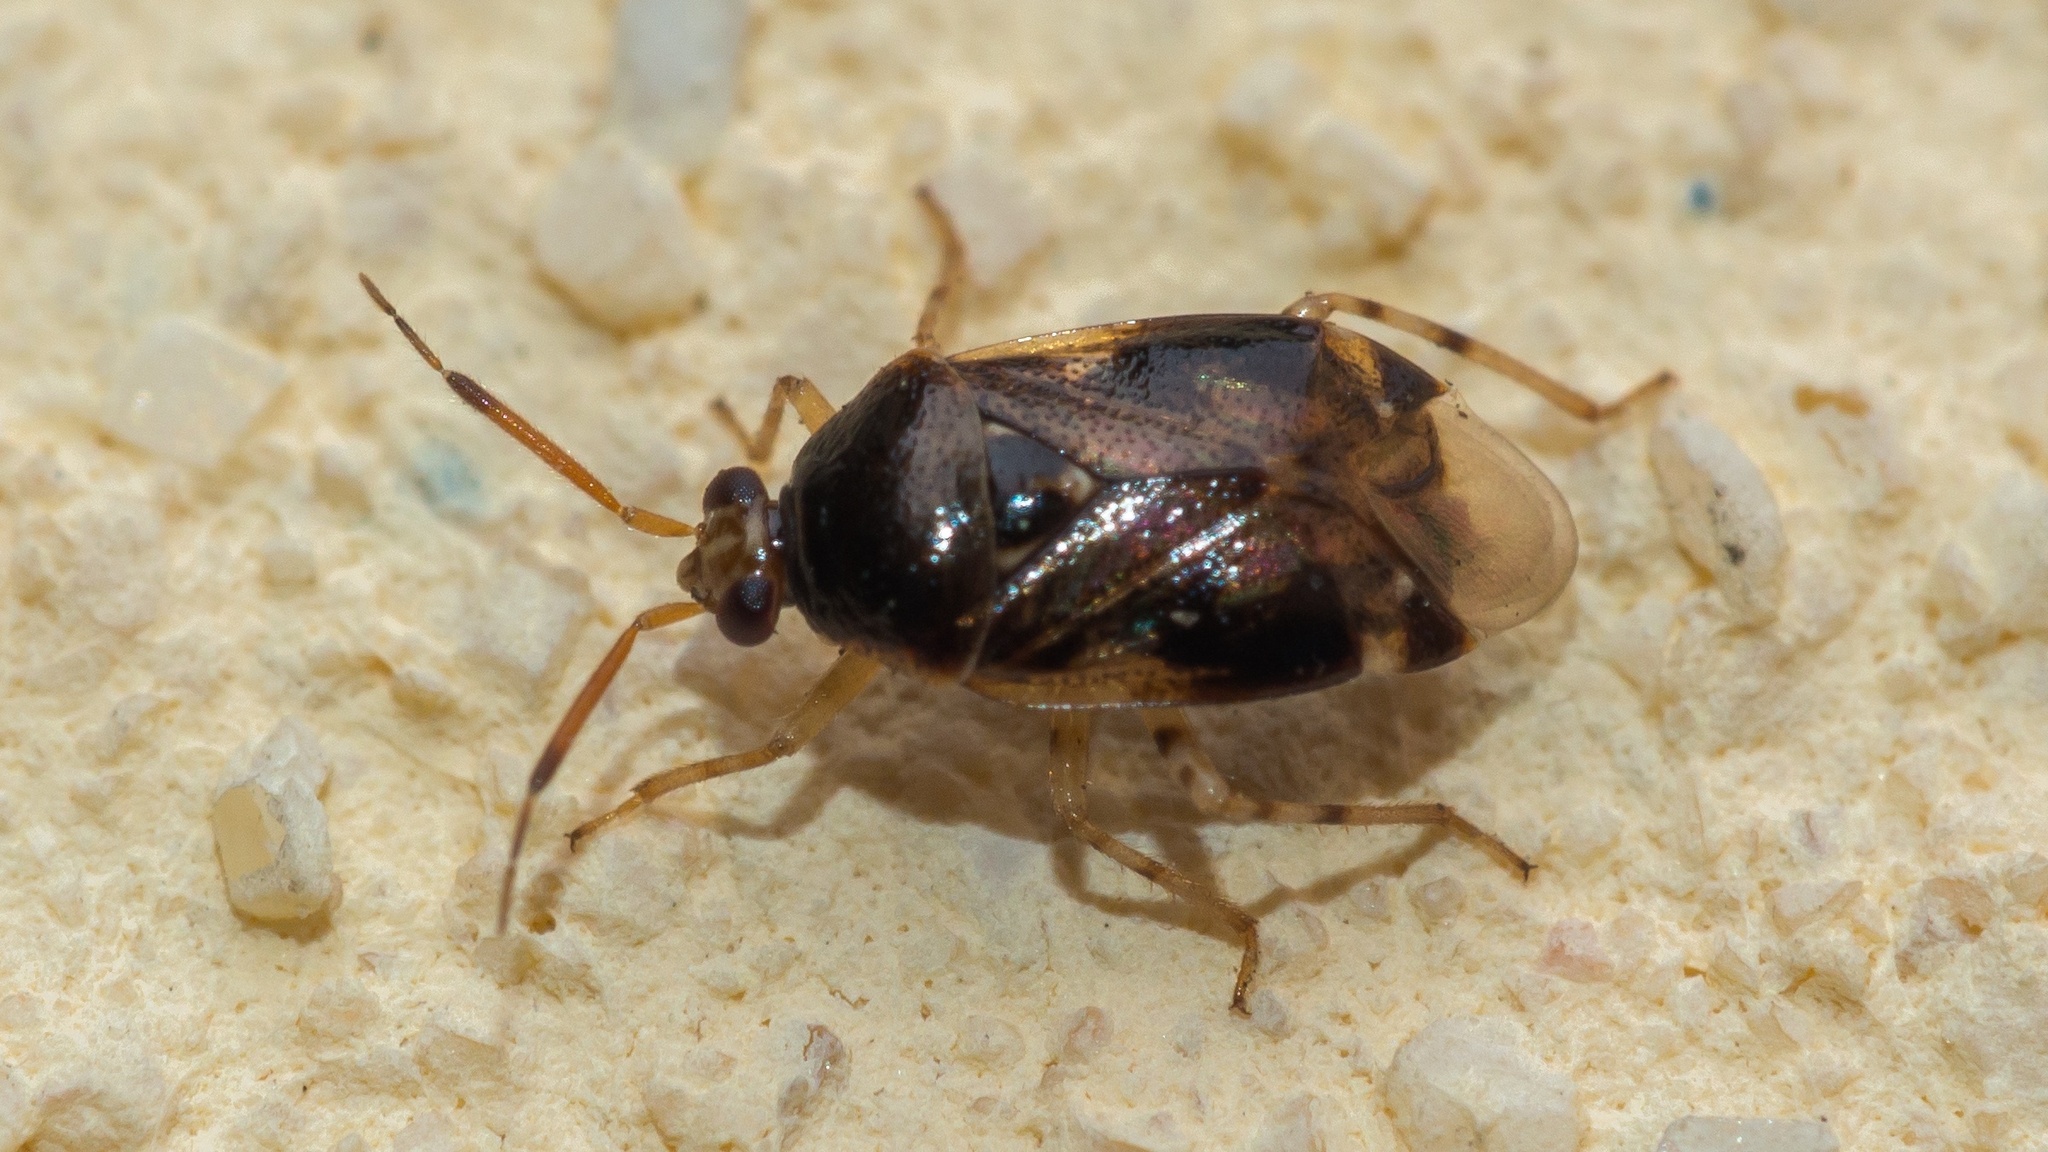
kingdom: Animalia
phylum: Arthropoda
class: Insecta
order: Hemiptera
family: Miridae
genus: Deraeocoris
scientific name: Deraeocoris lutescens
